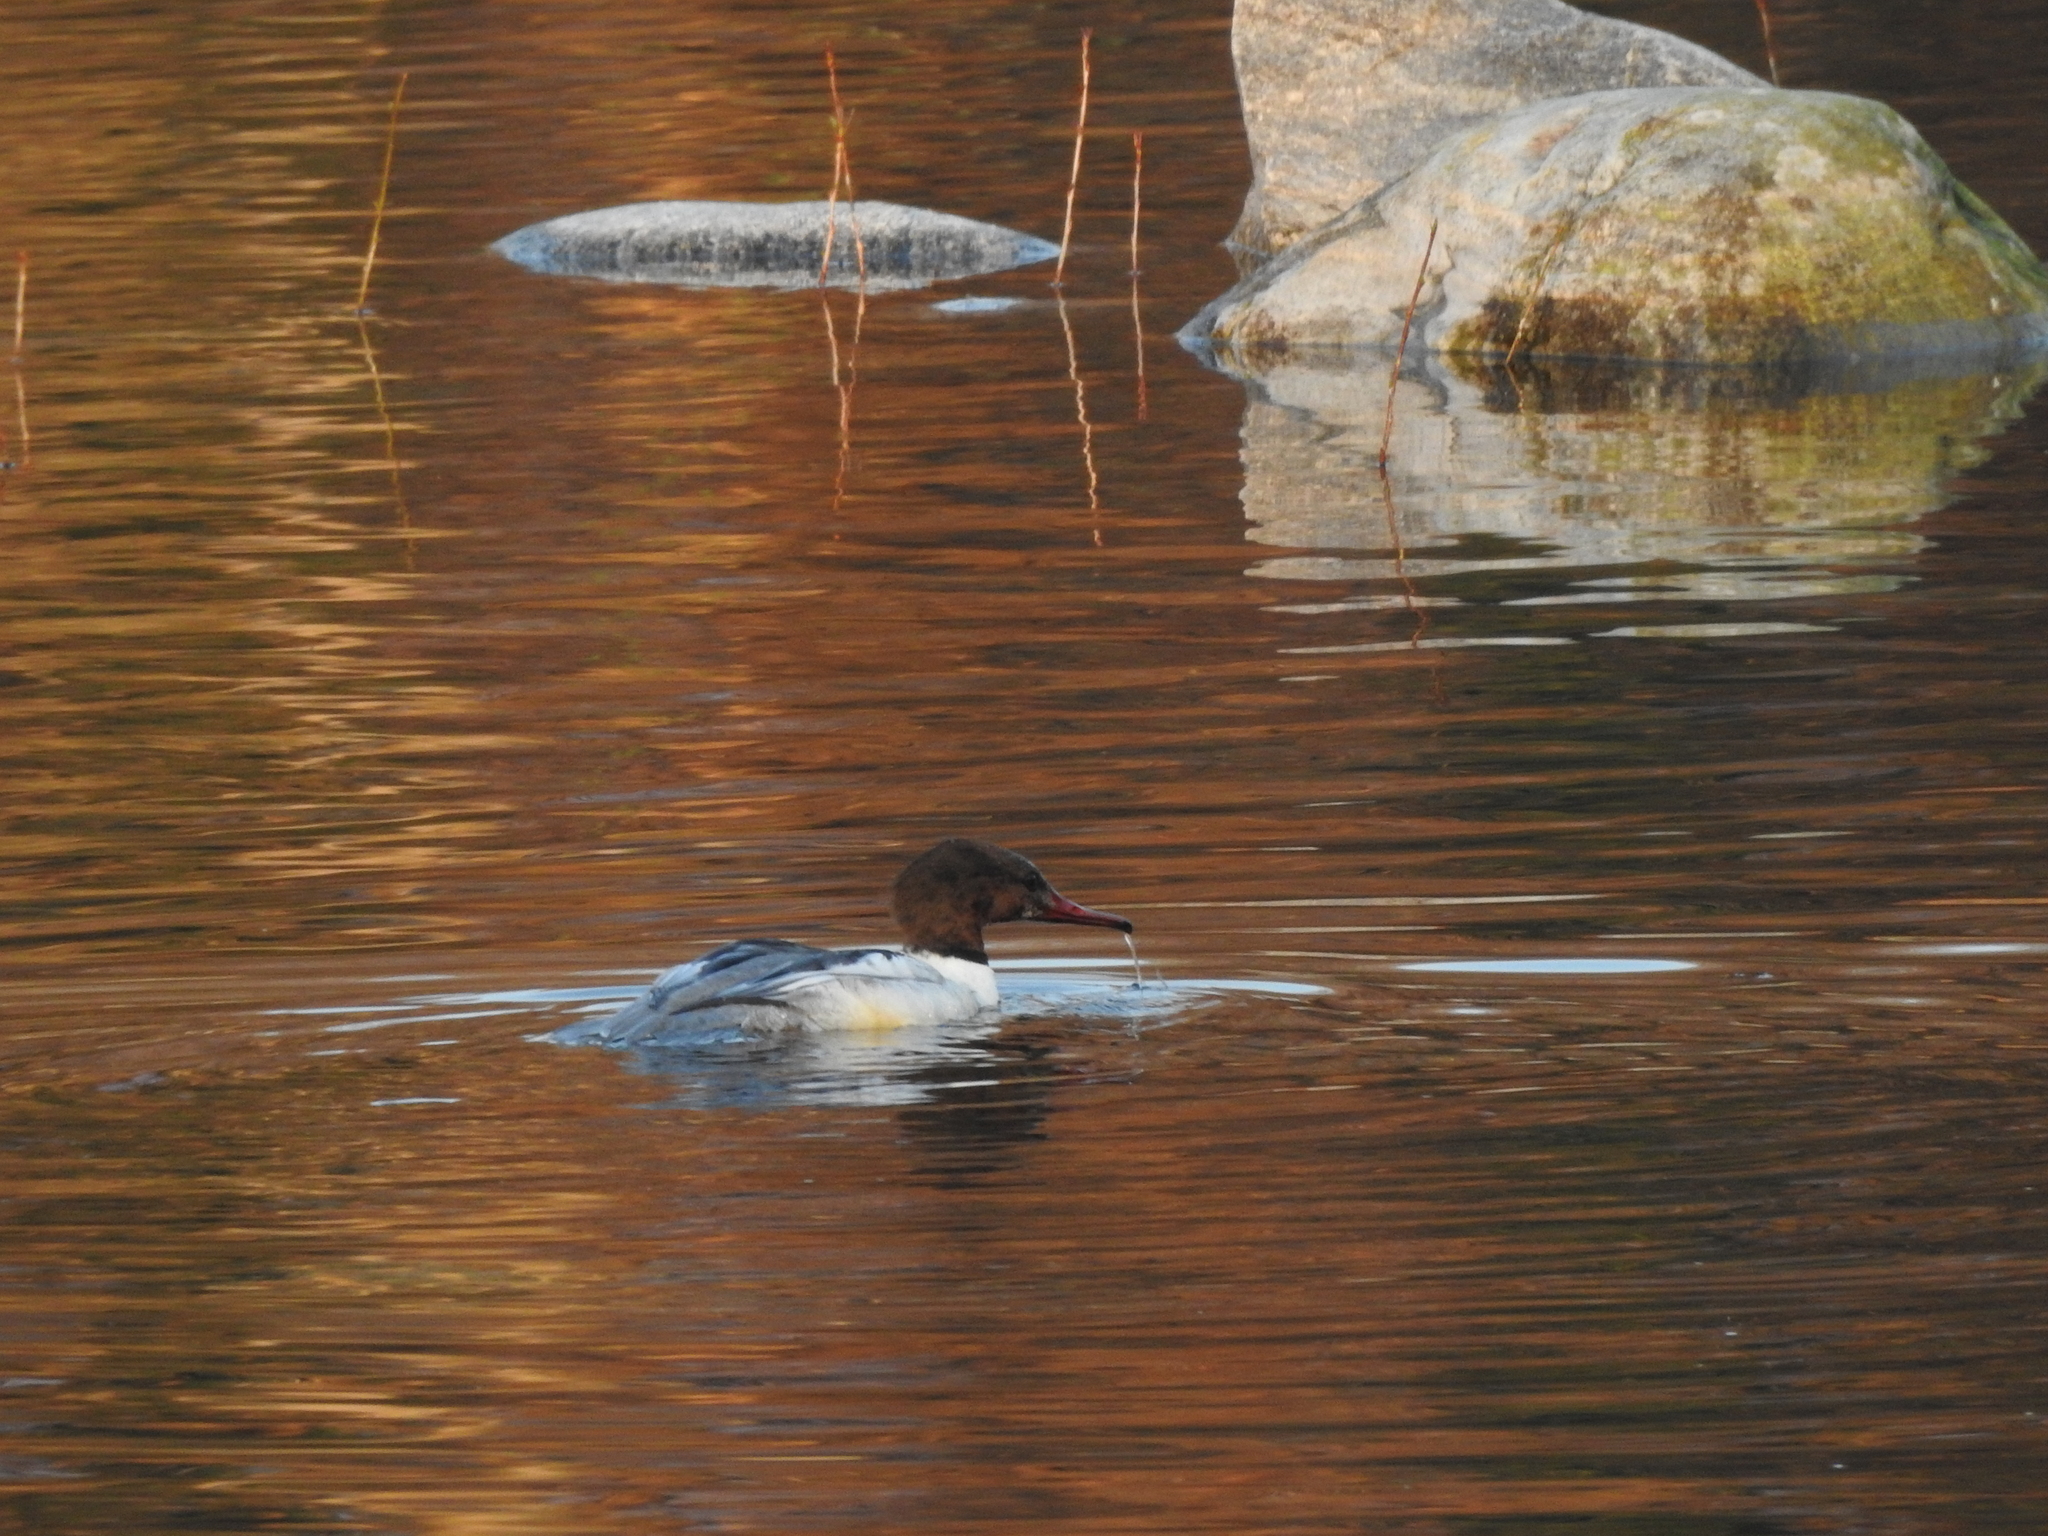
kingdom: Animalia
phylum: Chordata
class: Aves
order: Anseriformes
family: Anatidae
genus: Mergus
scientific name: Mergus merganser
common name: Common merganser
